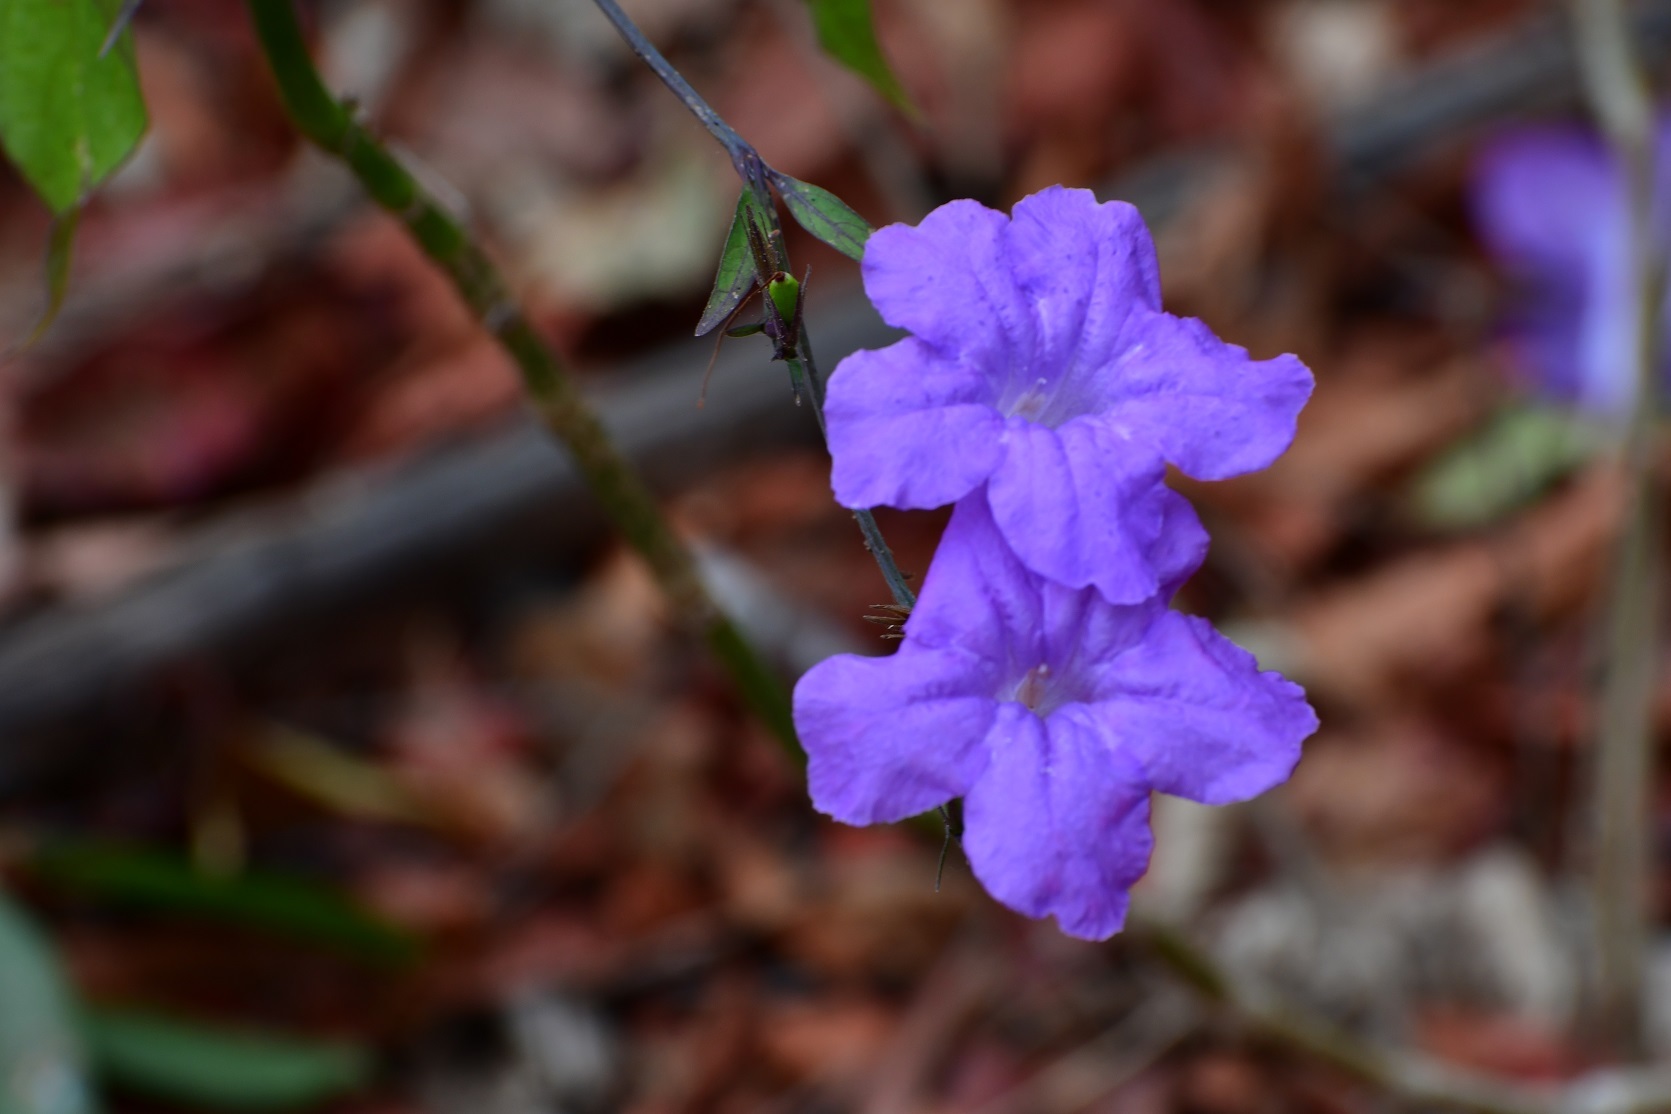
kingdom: Plantae
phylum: Tracheophyta
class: Magnoliopsida
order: Lamiales
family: Acanthaceae
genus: Ruellia
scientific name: Ruellia breedlovei
